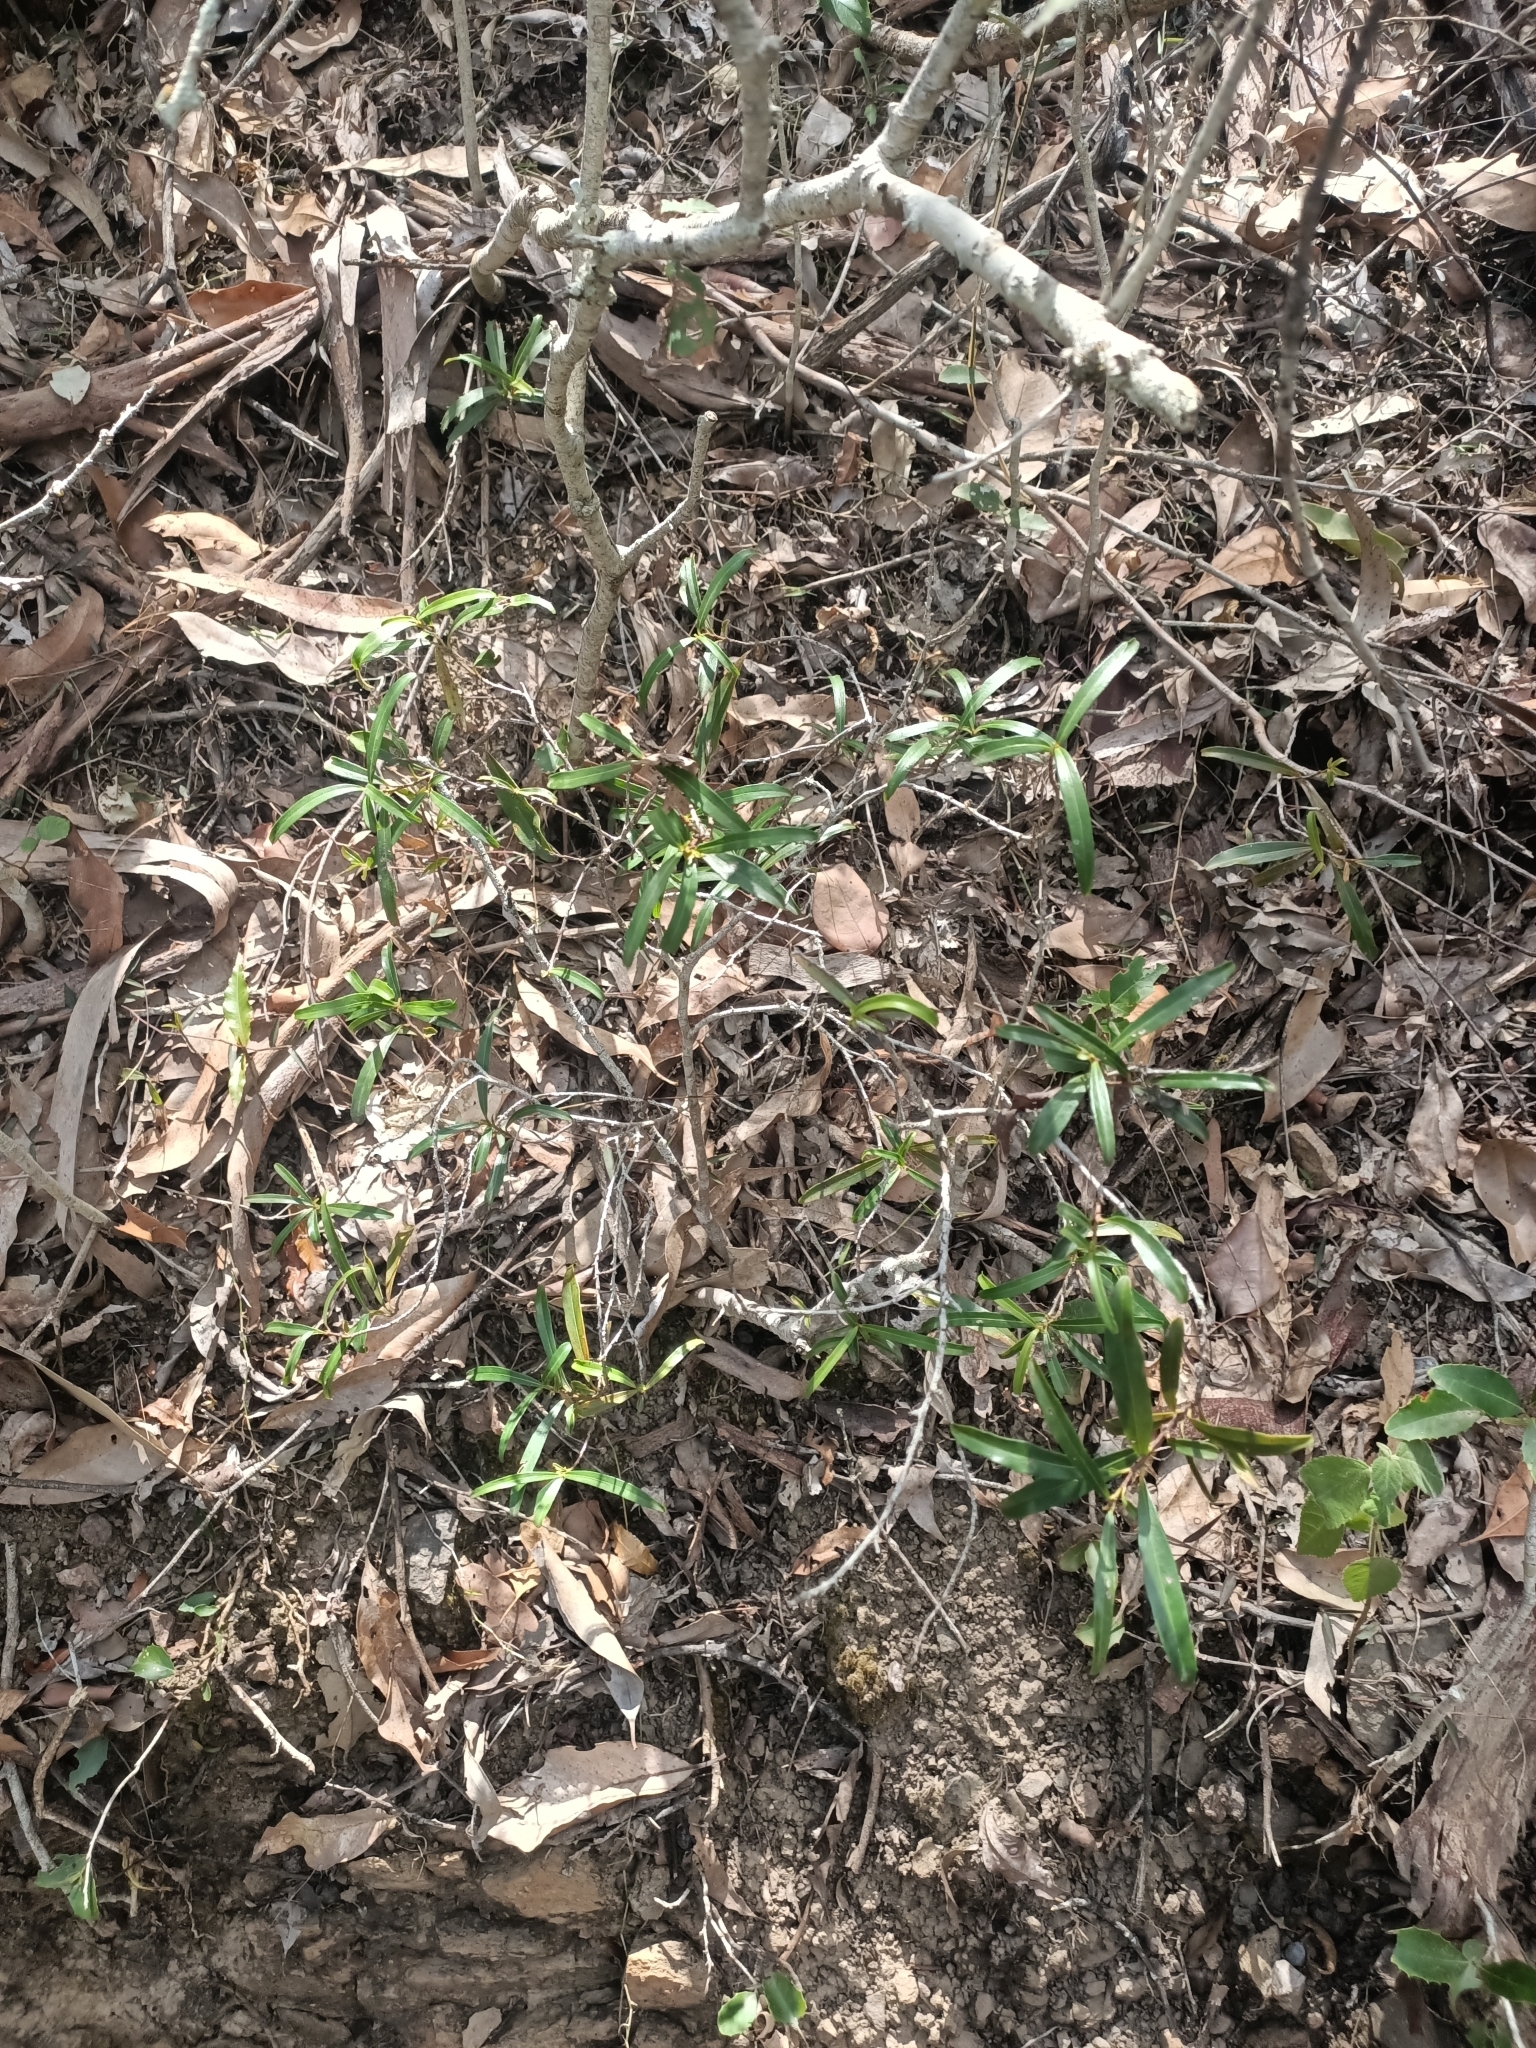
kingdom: Plantae
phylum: Tracheophyta
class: Magnoliopsida
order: Ericales
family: Primulaceae
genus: Myrsine
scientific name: Myrsine angusta
